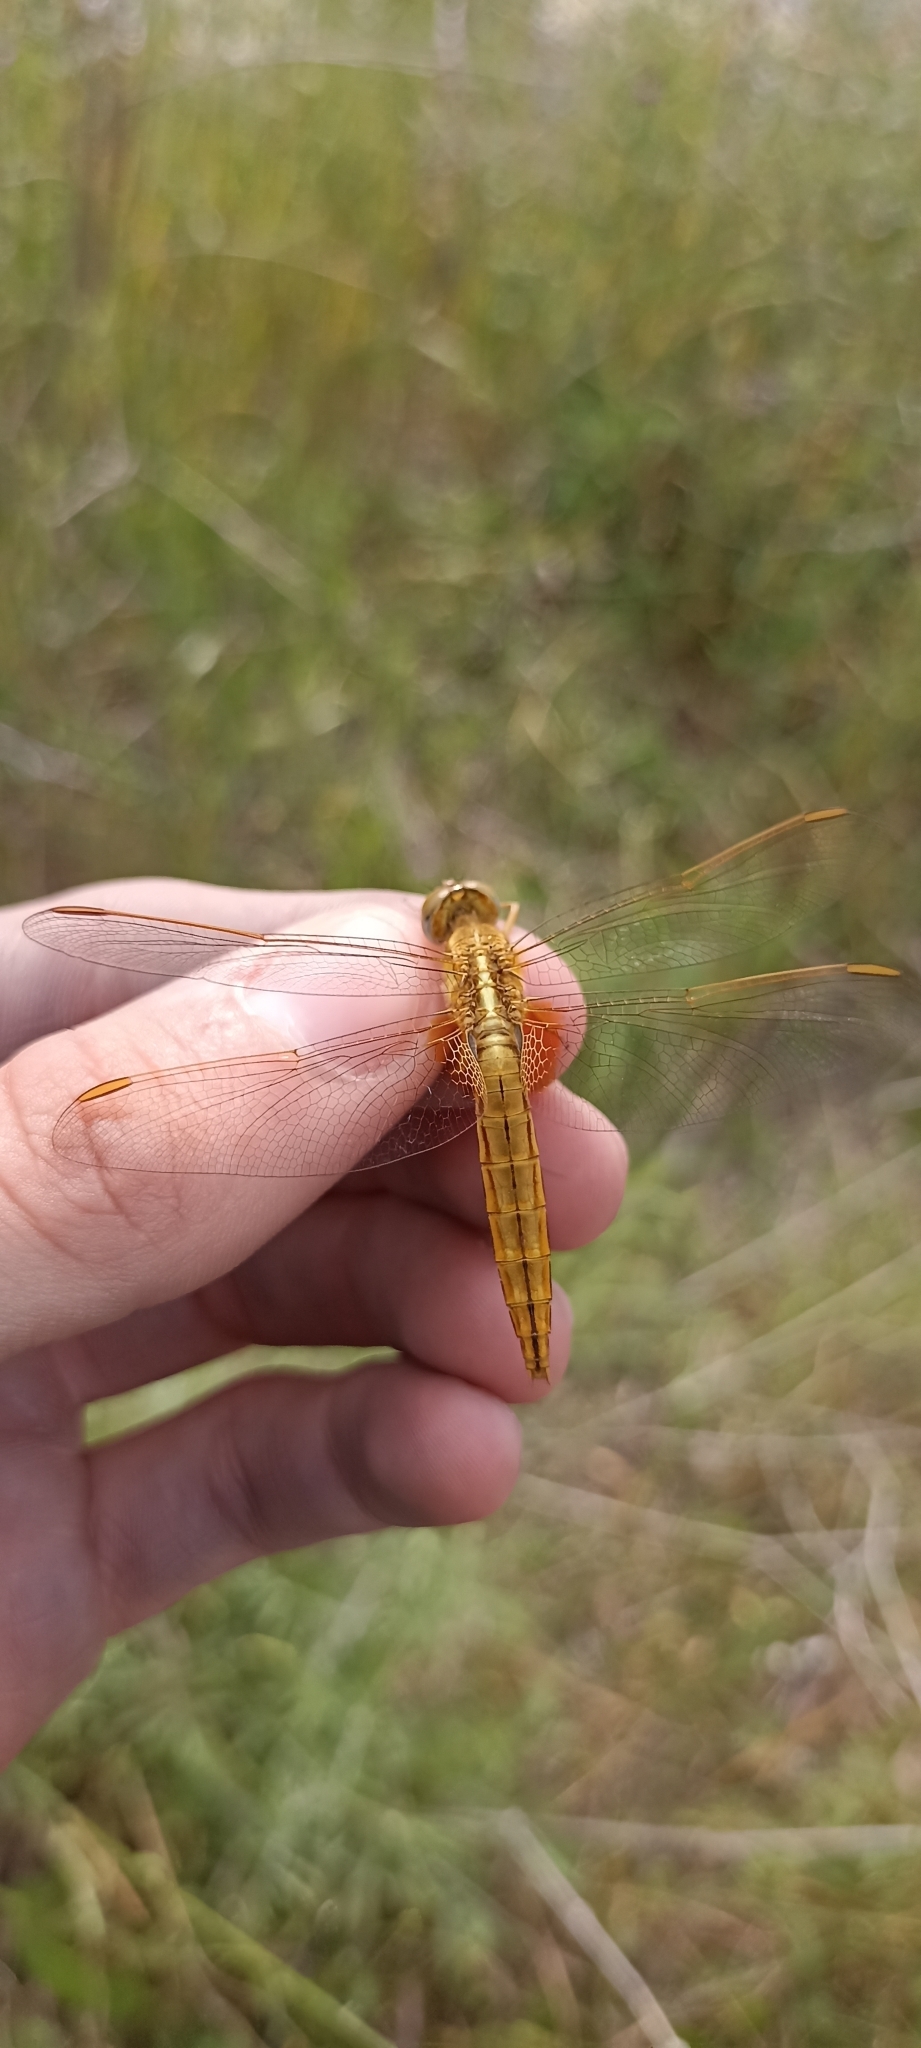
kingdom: Animalia
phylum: Arthropoda
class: Insecta
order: Odonata
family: Libellulidae
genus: Crocothemis
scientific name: Crocothemis erythraea
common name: Scarlet dragonfly
